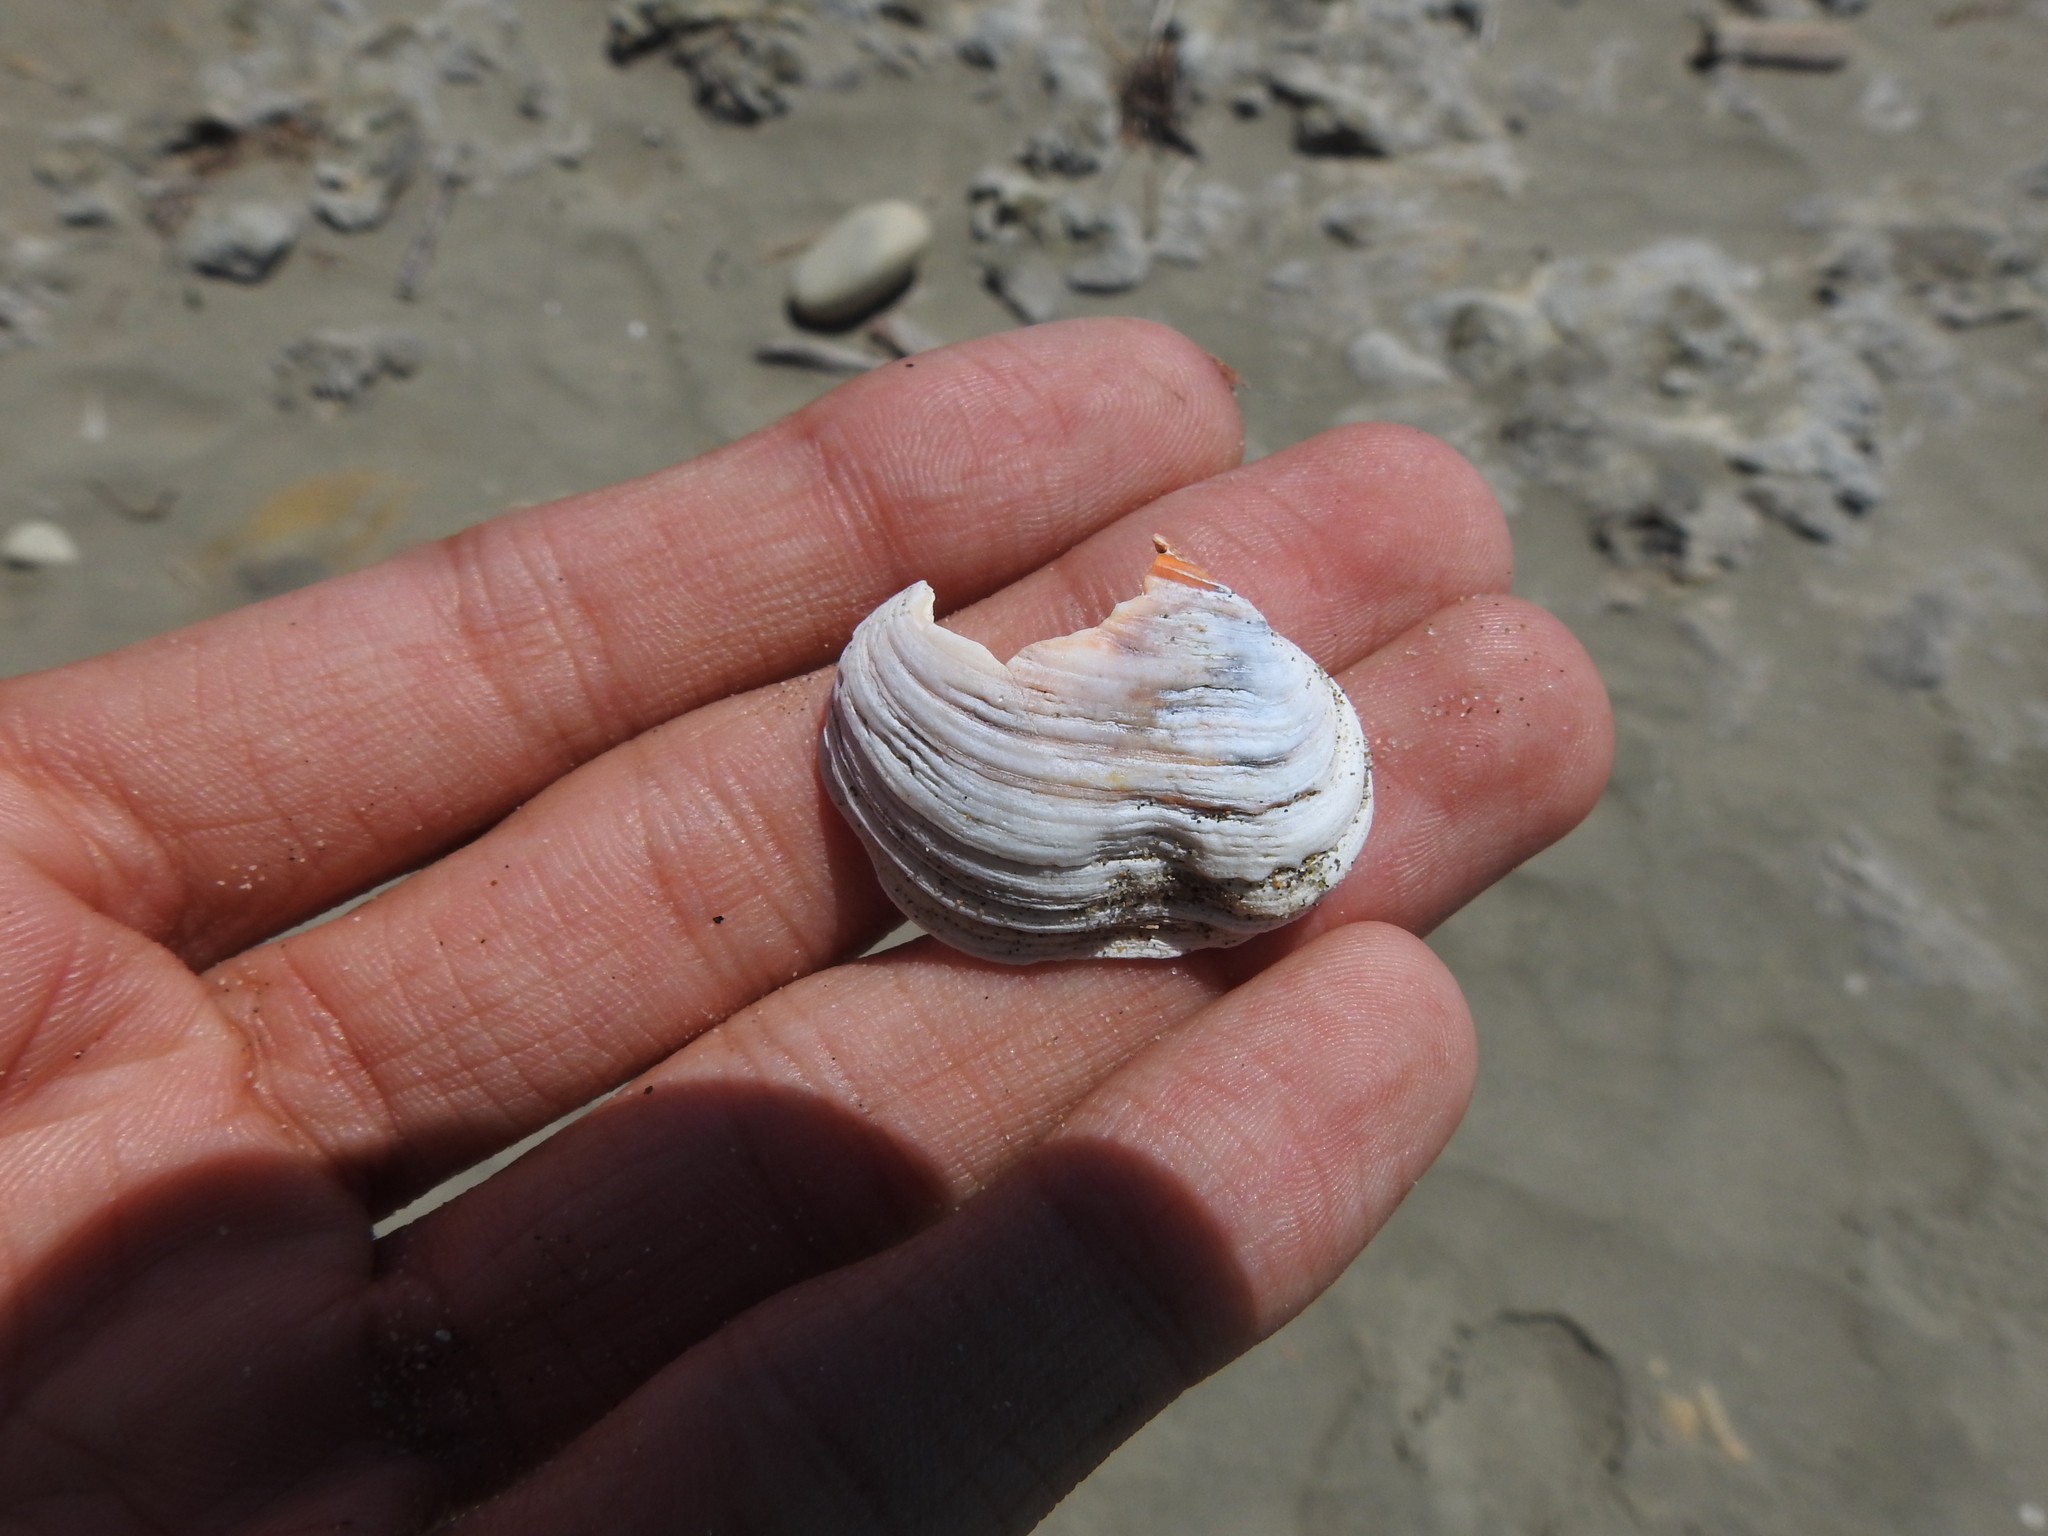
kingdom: Animalia
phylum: Mollusca
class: Bivalvia
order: Venerida
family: Veneridae
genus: Petricola
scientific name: Petricola carditoides
